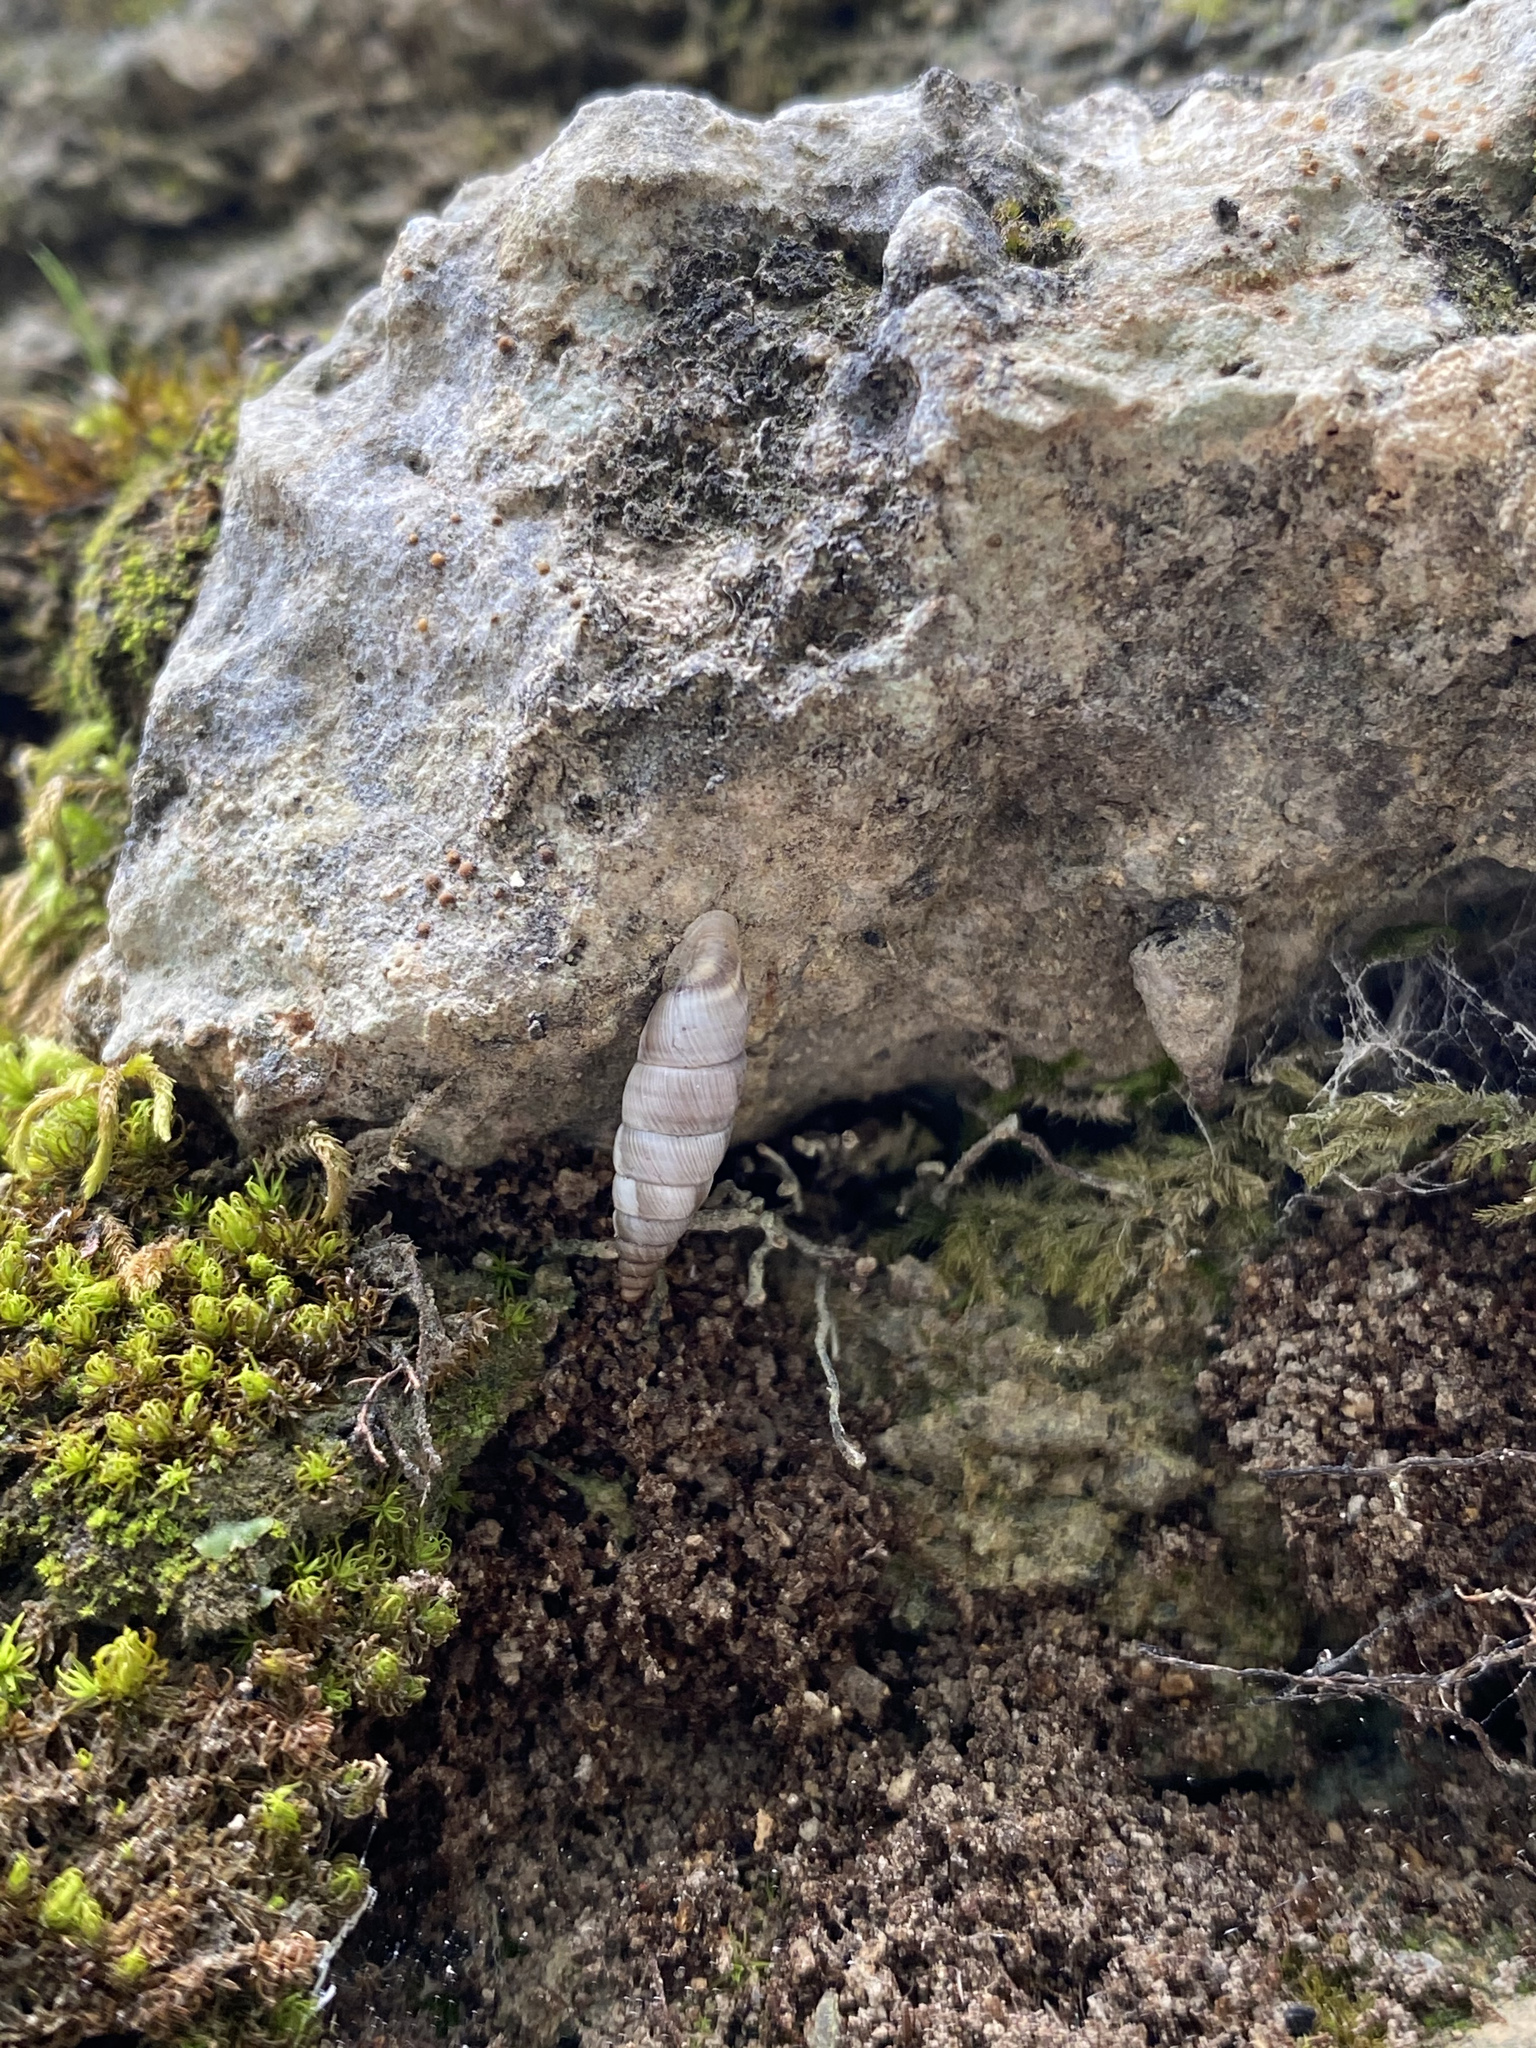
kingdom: Animalia
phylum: Mollusca
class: Gastropoda
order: Stylommatophora
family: Chondrinidae
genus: Solatopupa
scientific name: Solatopupa juliana
